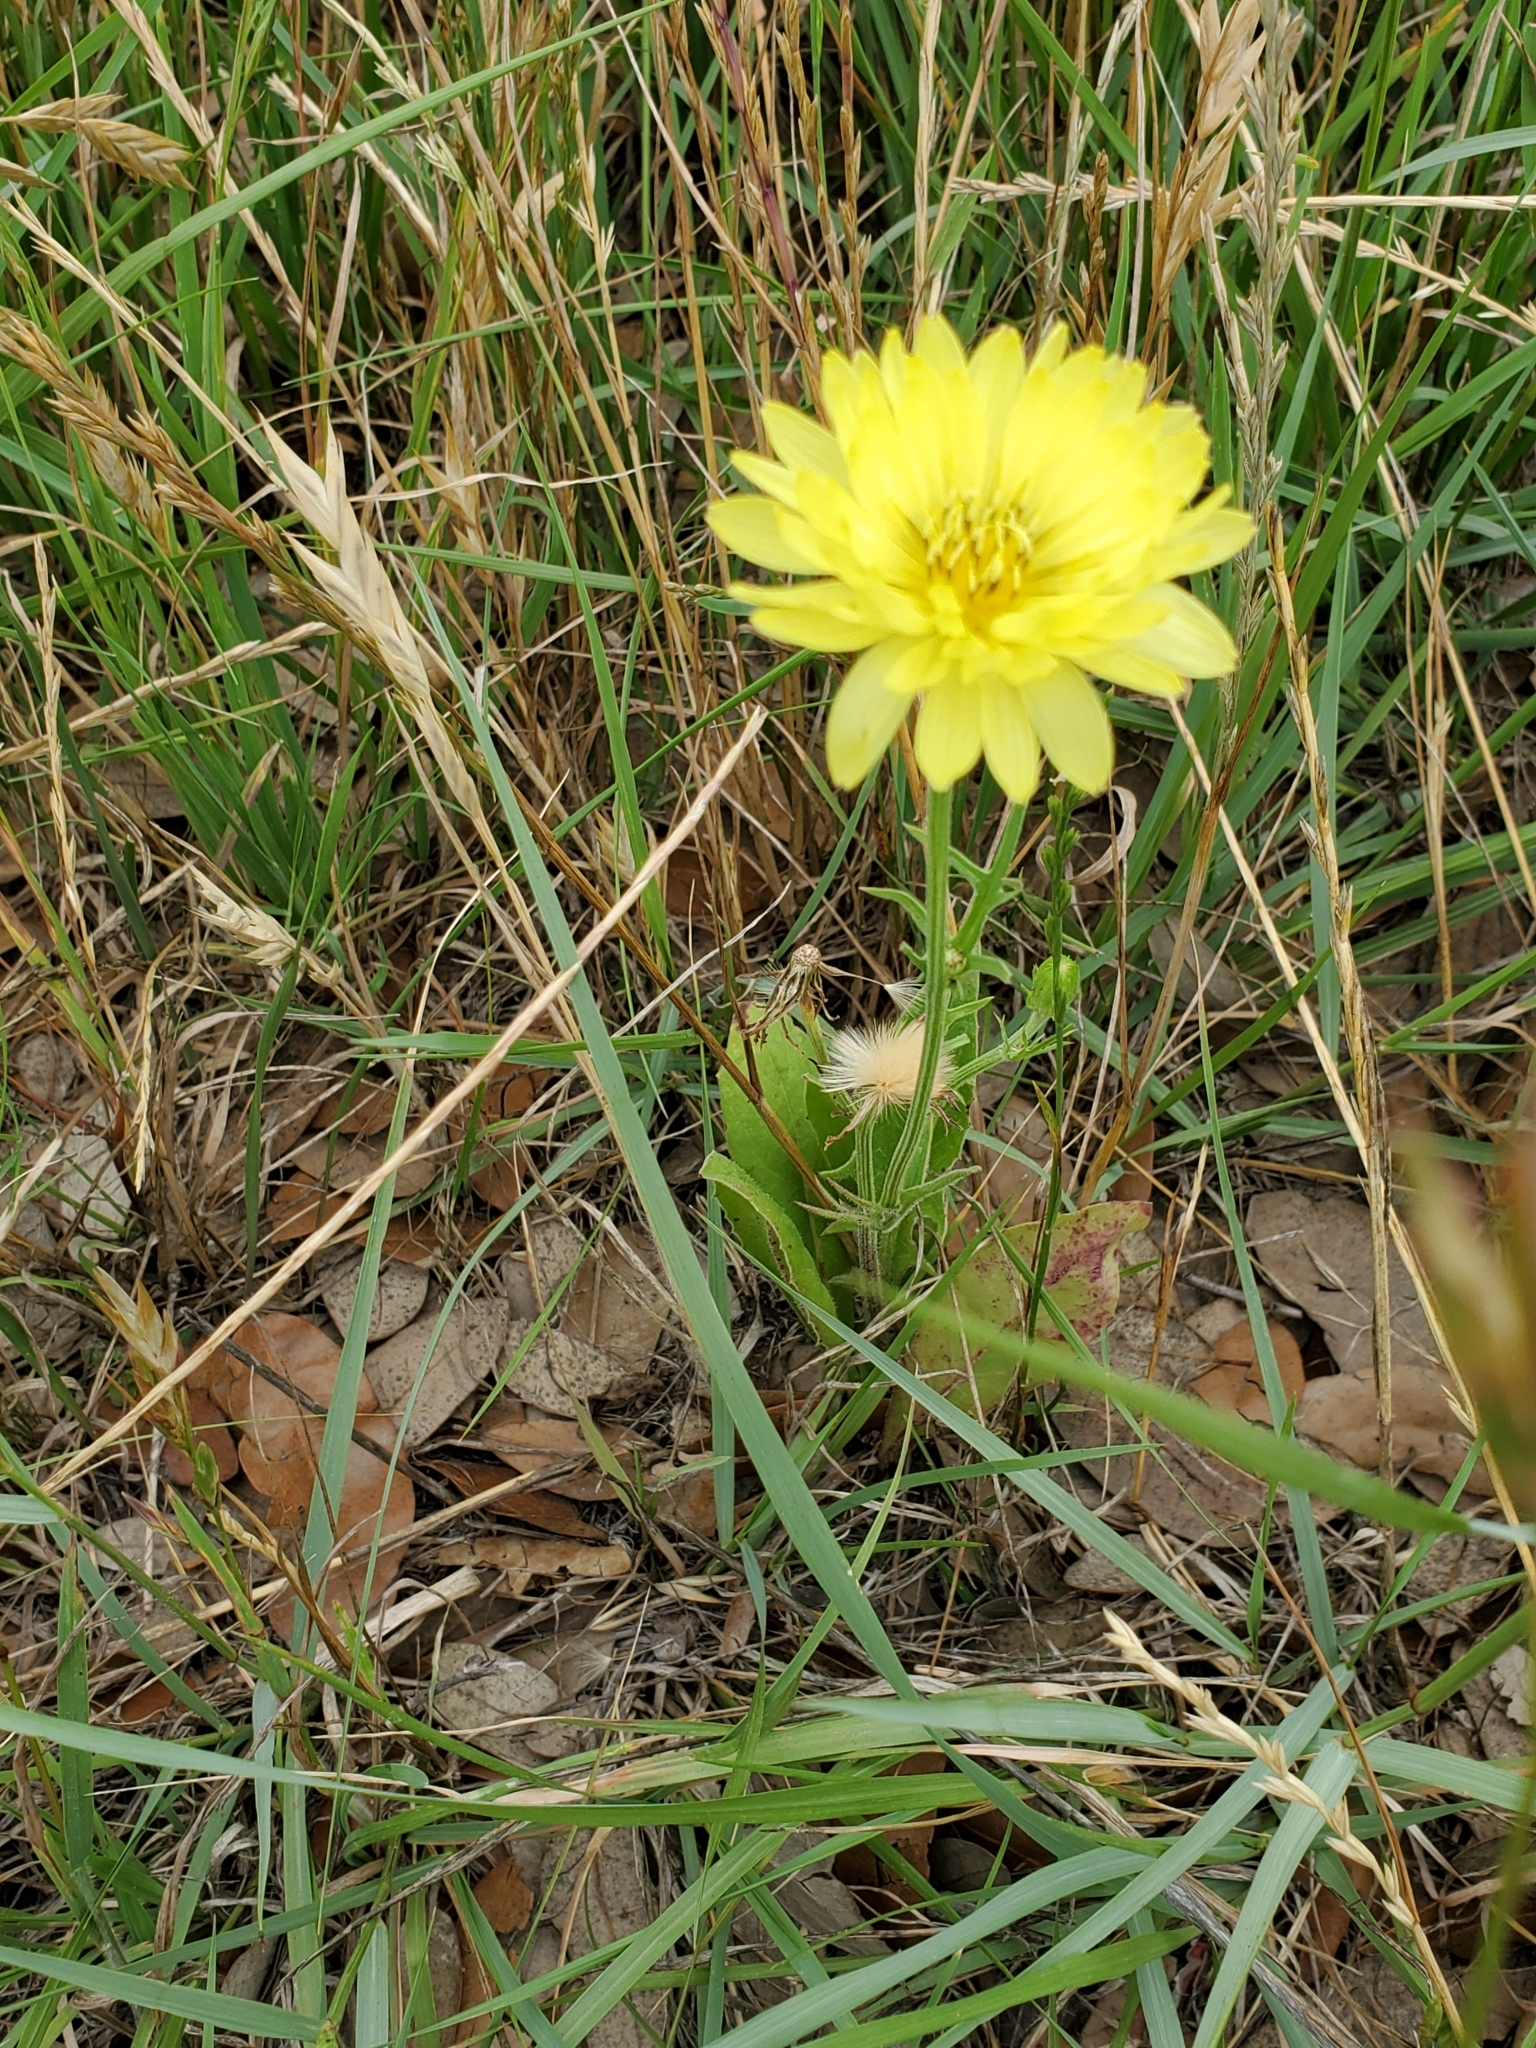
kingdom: Plantae
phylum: Tracheophyta
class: Magnoliopsida
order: Asterales
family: Asteraceae
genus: Pyrrhopappus
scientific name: Pyrrhopappus pauciflorus
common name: Texas false dandelion
